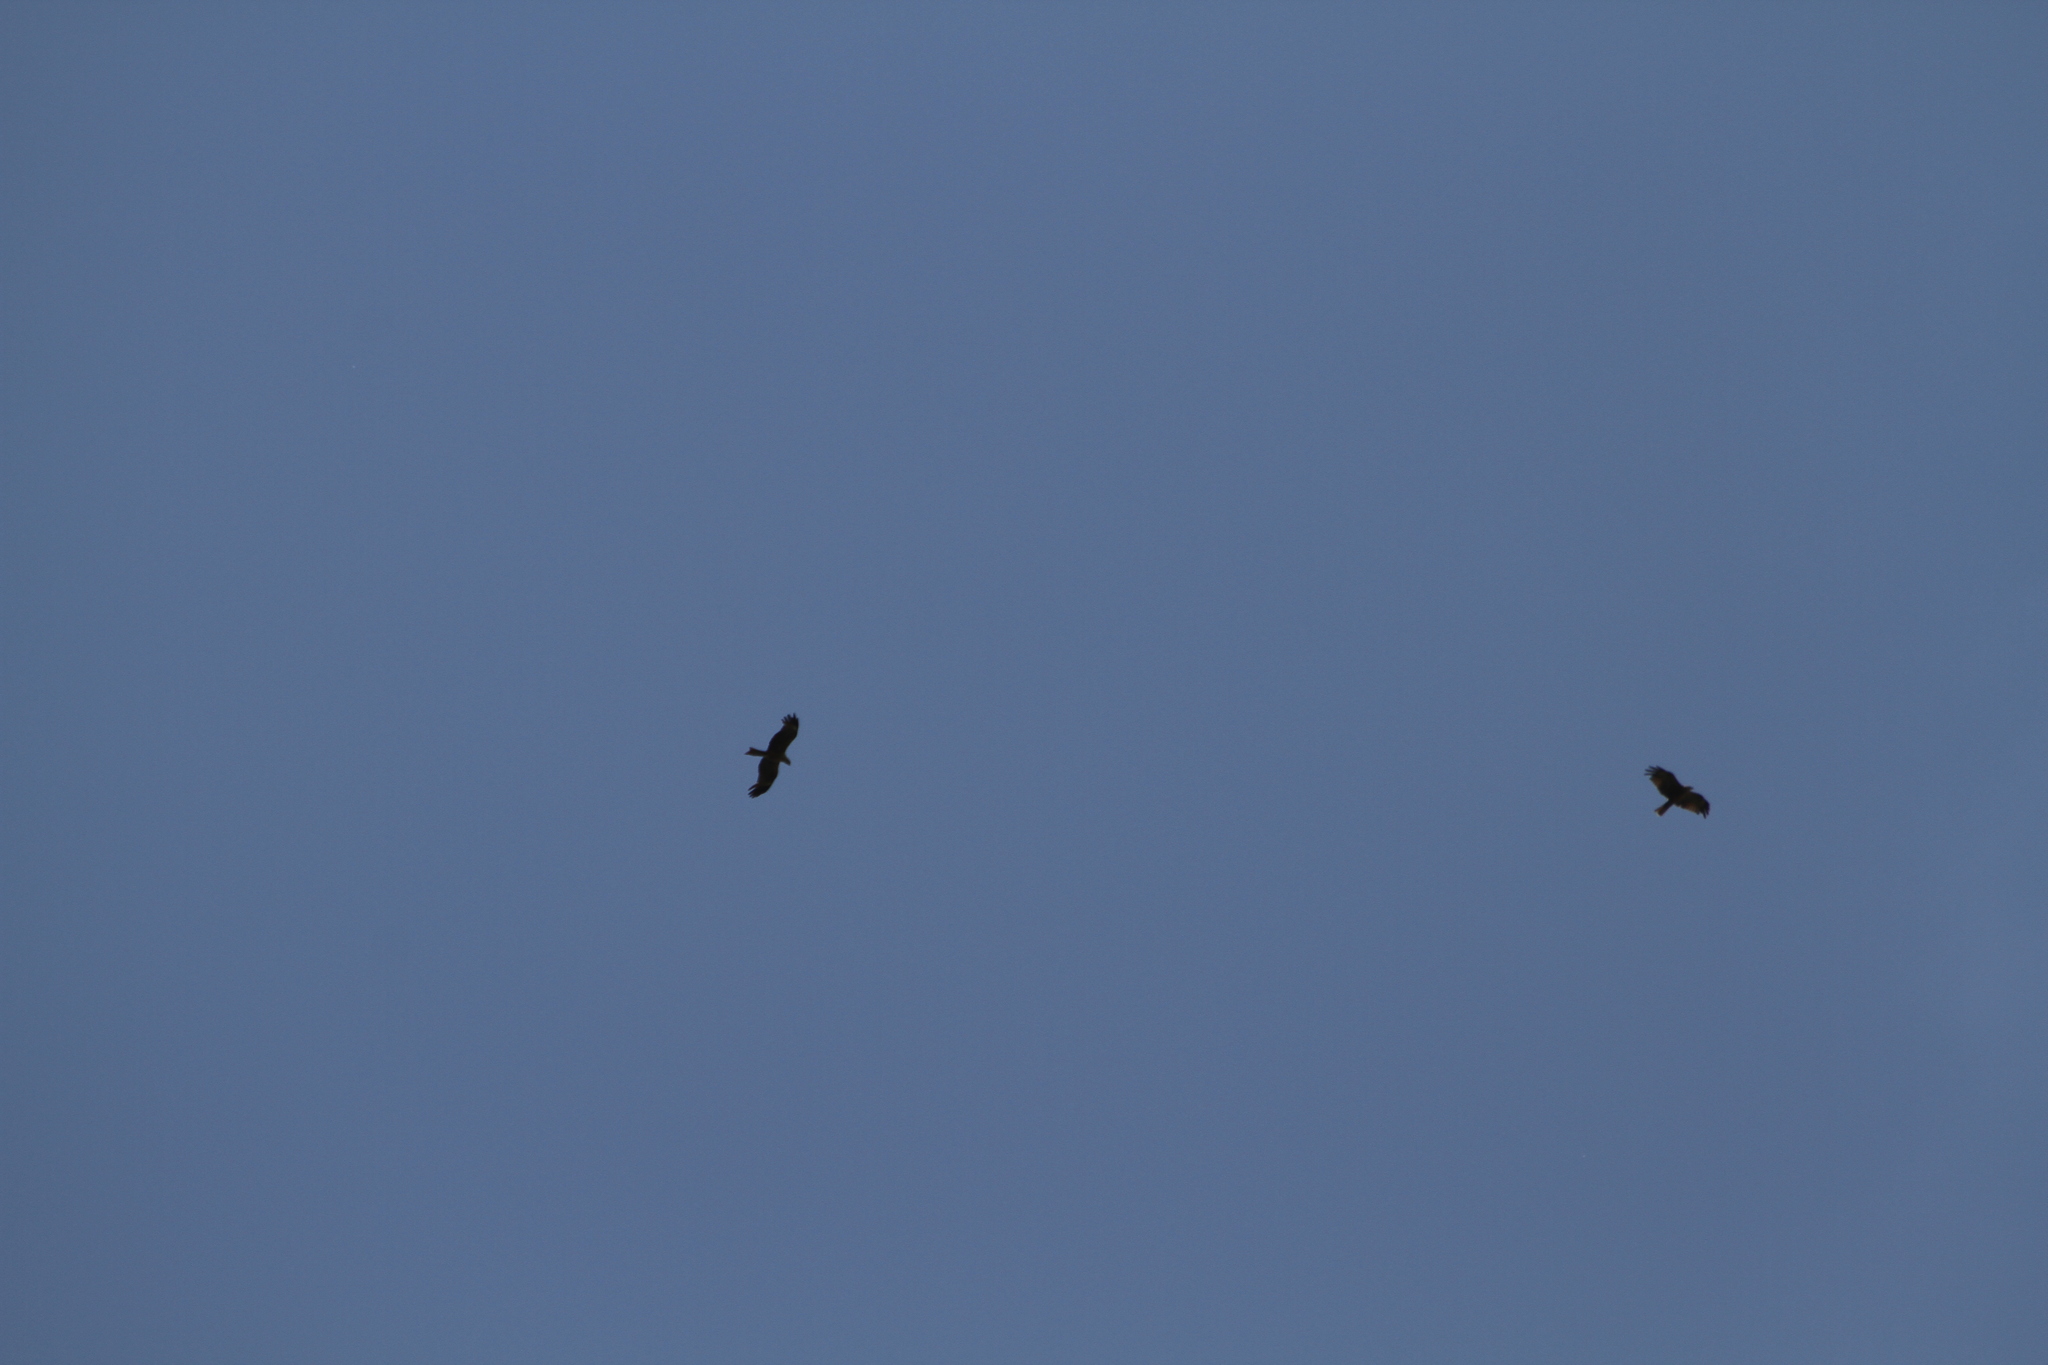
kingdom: Animalia
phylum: Chordata
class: Aves
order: Accipitriformes
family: Accipitridae
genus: Milvus
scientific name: Milvus migrans
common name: Black kite
